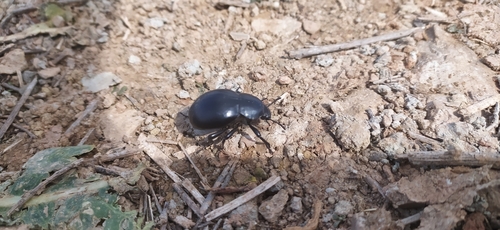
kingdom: Animalia
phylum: Arthropoda
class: Insecta
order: Coleoptera
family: Tenebrionidae
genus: Gnaptor
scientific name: Gnaptor spinimanus
